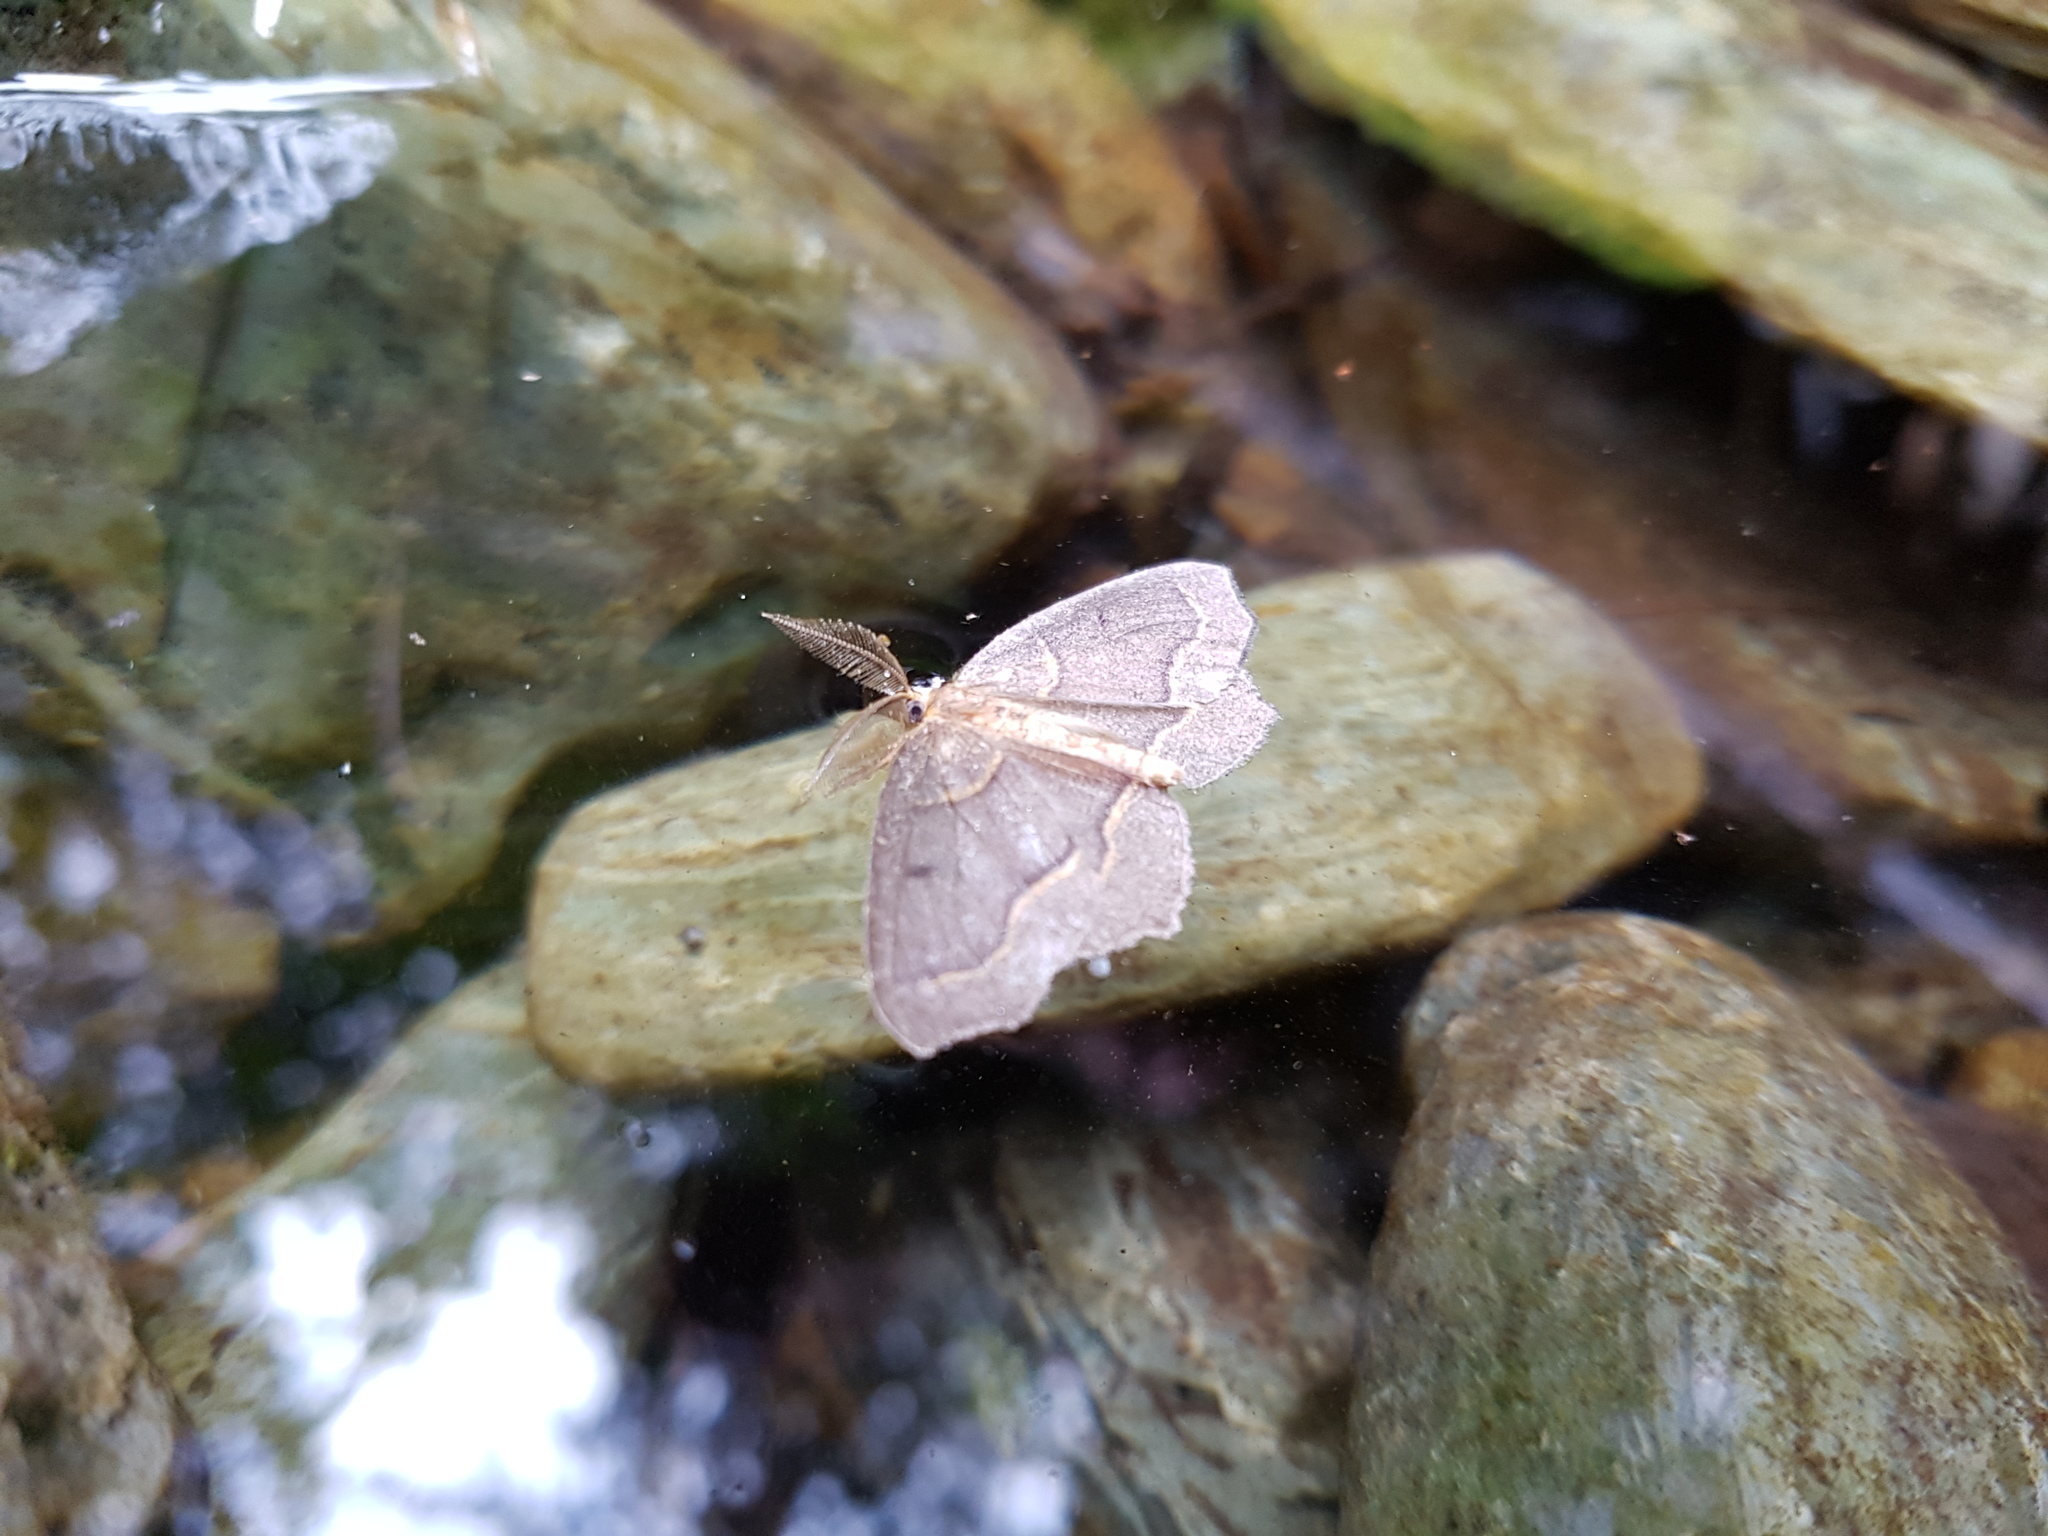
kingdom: Animalia
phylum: Arthropoda
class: Insecta
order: Lepidoptera
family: Geometridae
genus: Lambdina
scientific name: Lambdina fiscellaria
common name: Hemlock looper
